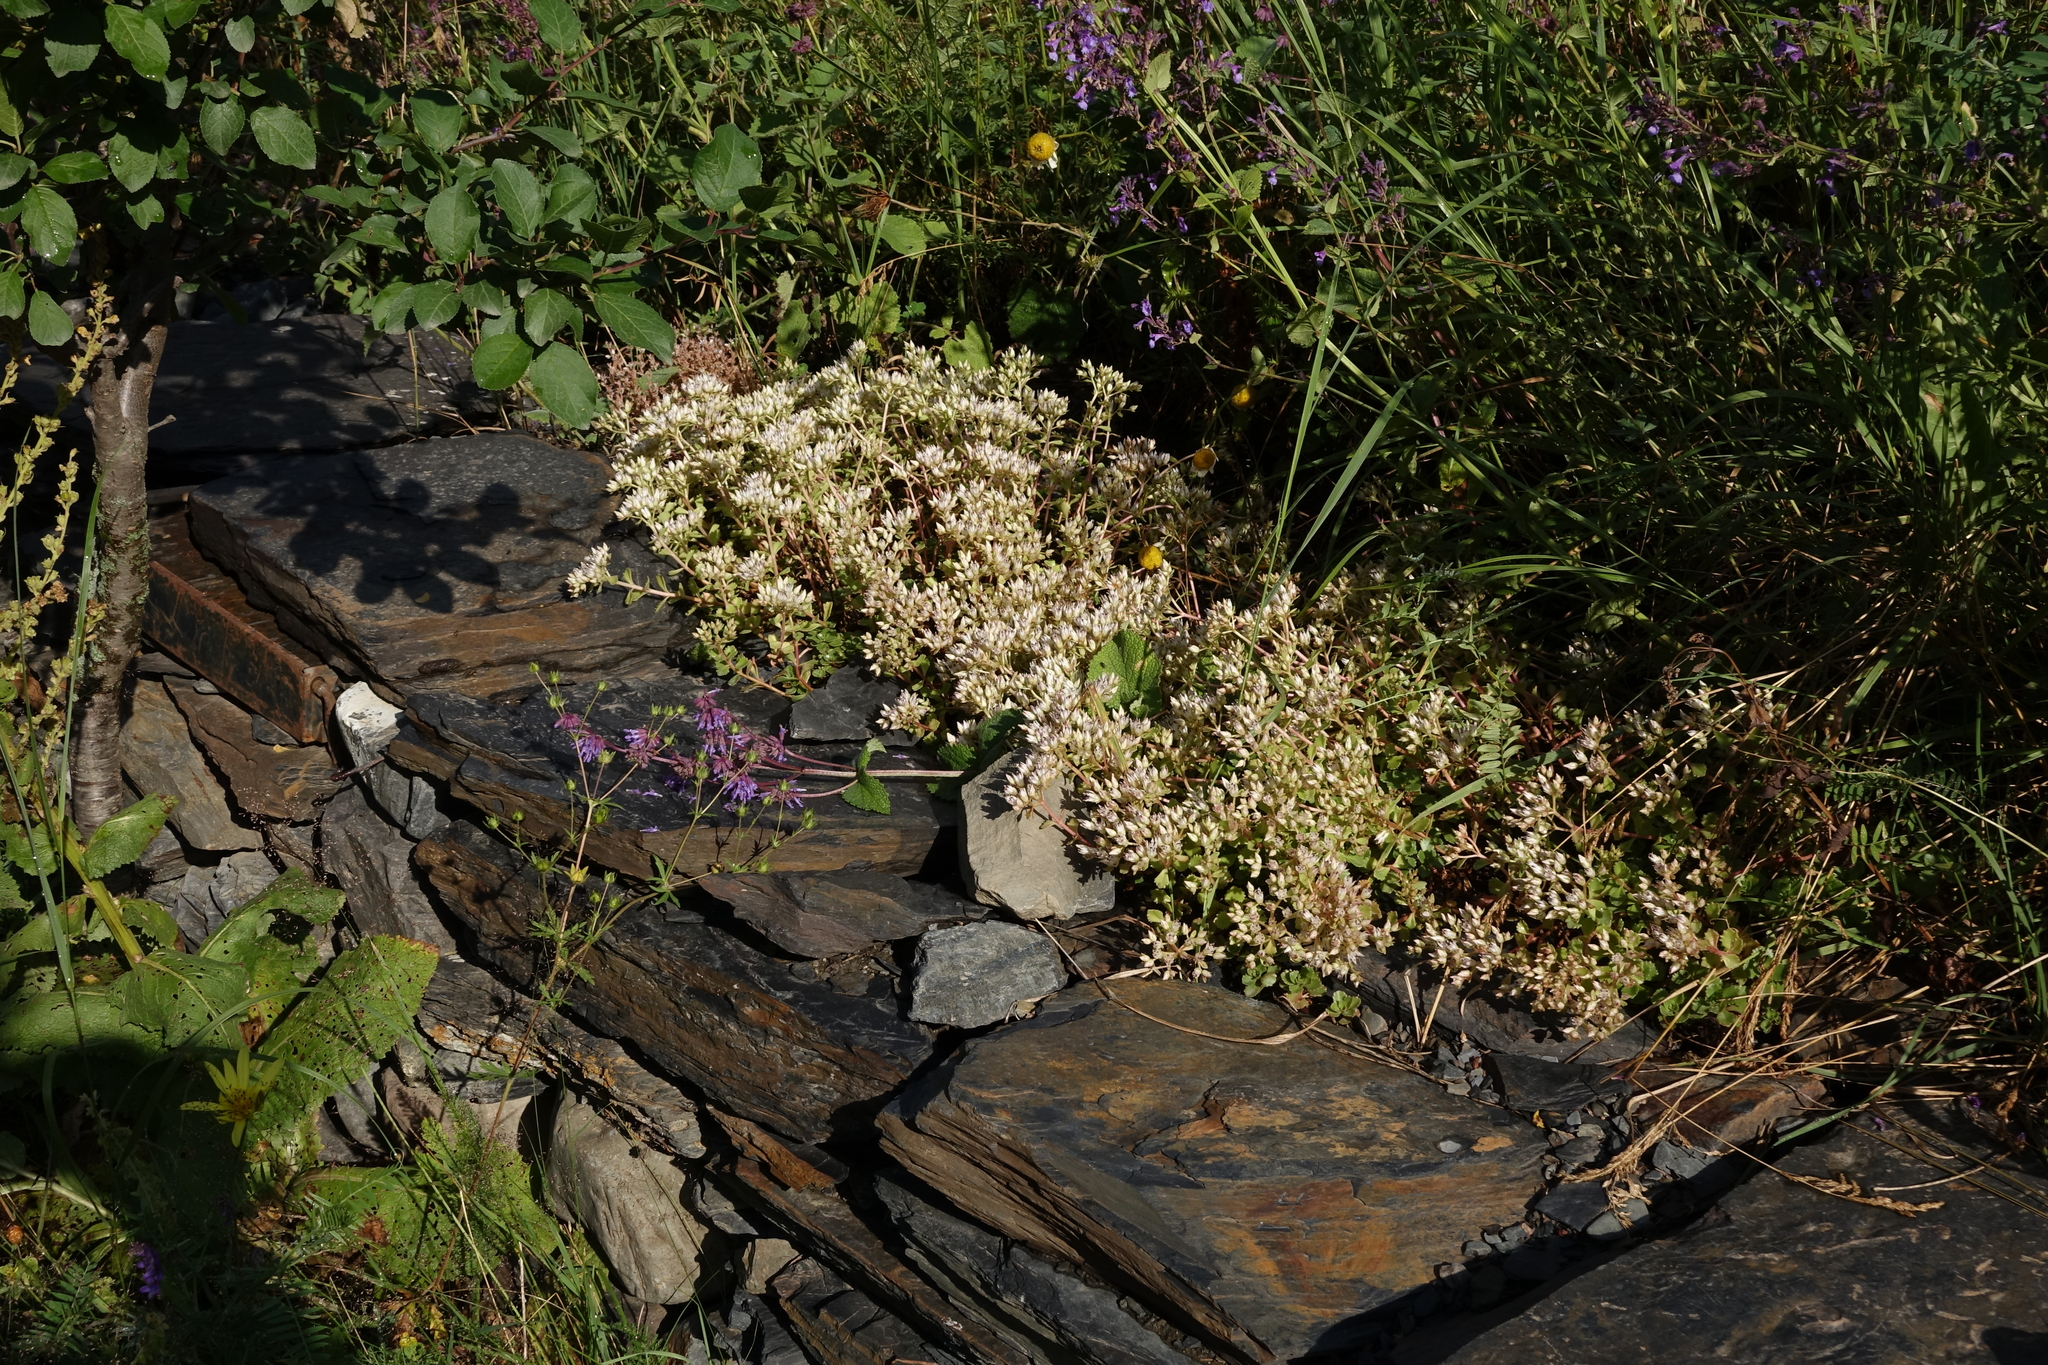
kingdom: Plantae
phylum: Tracheophyta
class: Magnoliopsida
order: Saxifragales
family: Crassulaceae
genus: Phedimus
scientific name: Phedimus spurius
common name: Caucasian stonecrop
